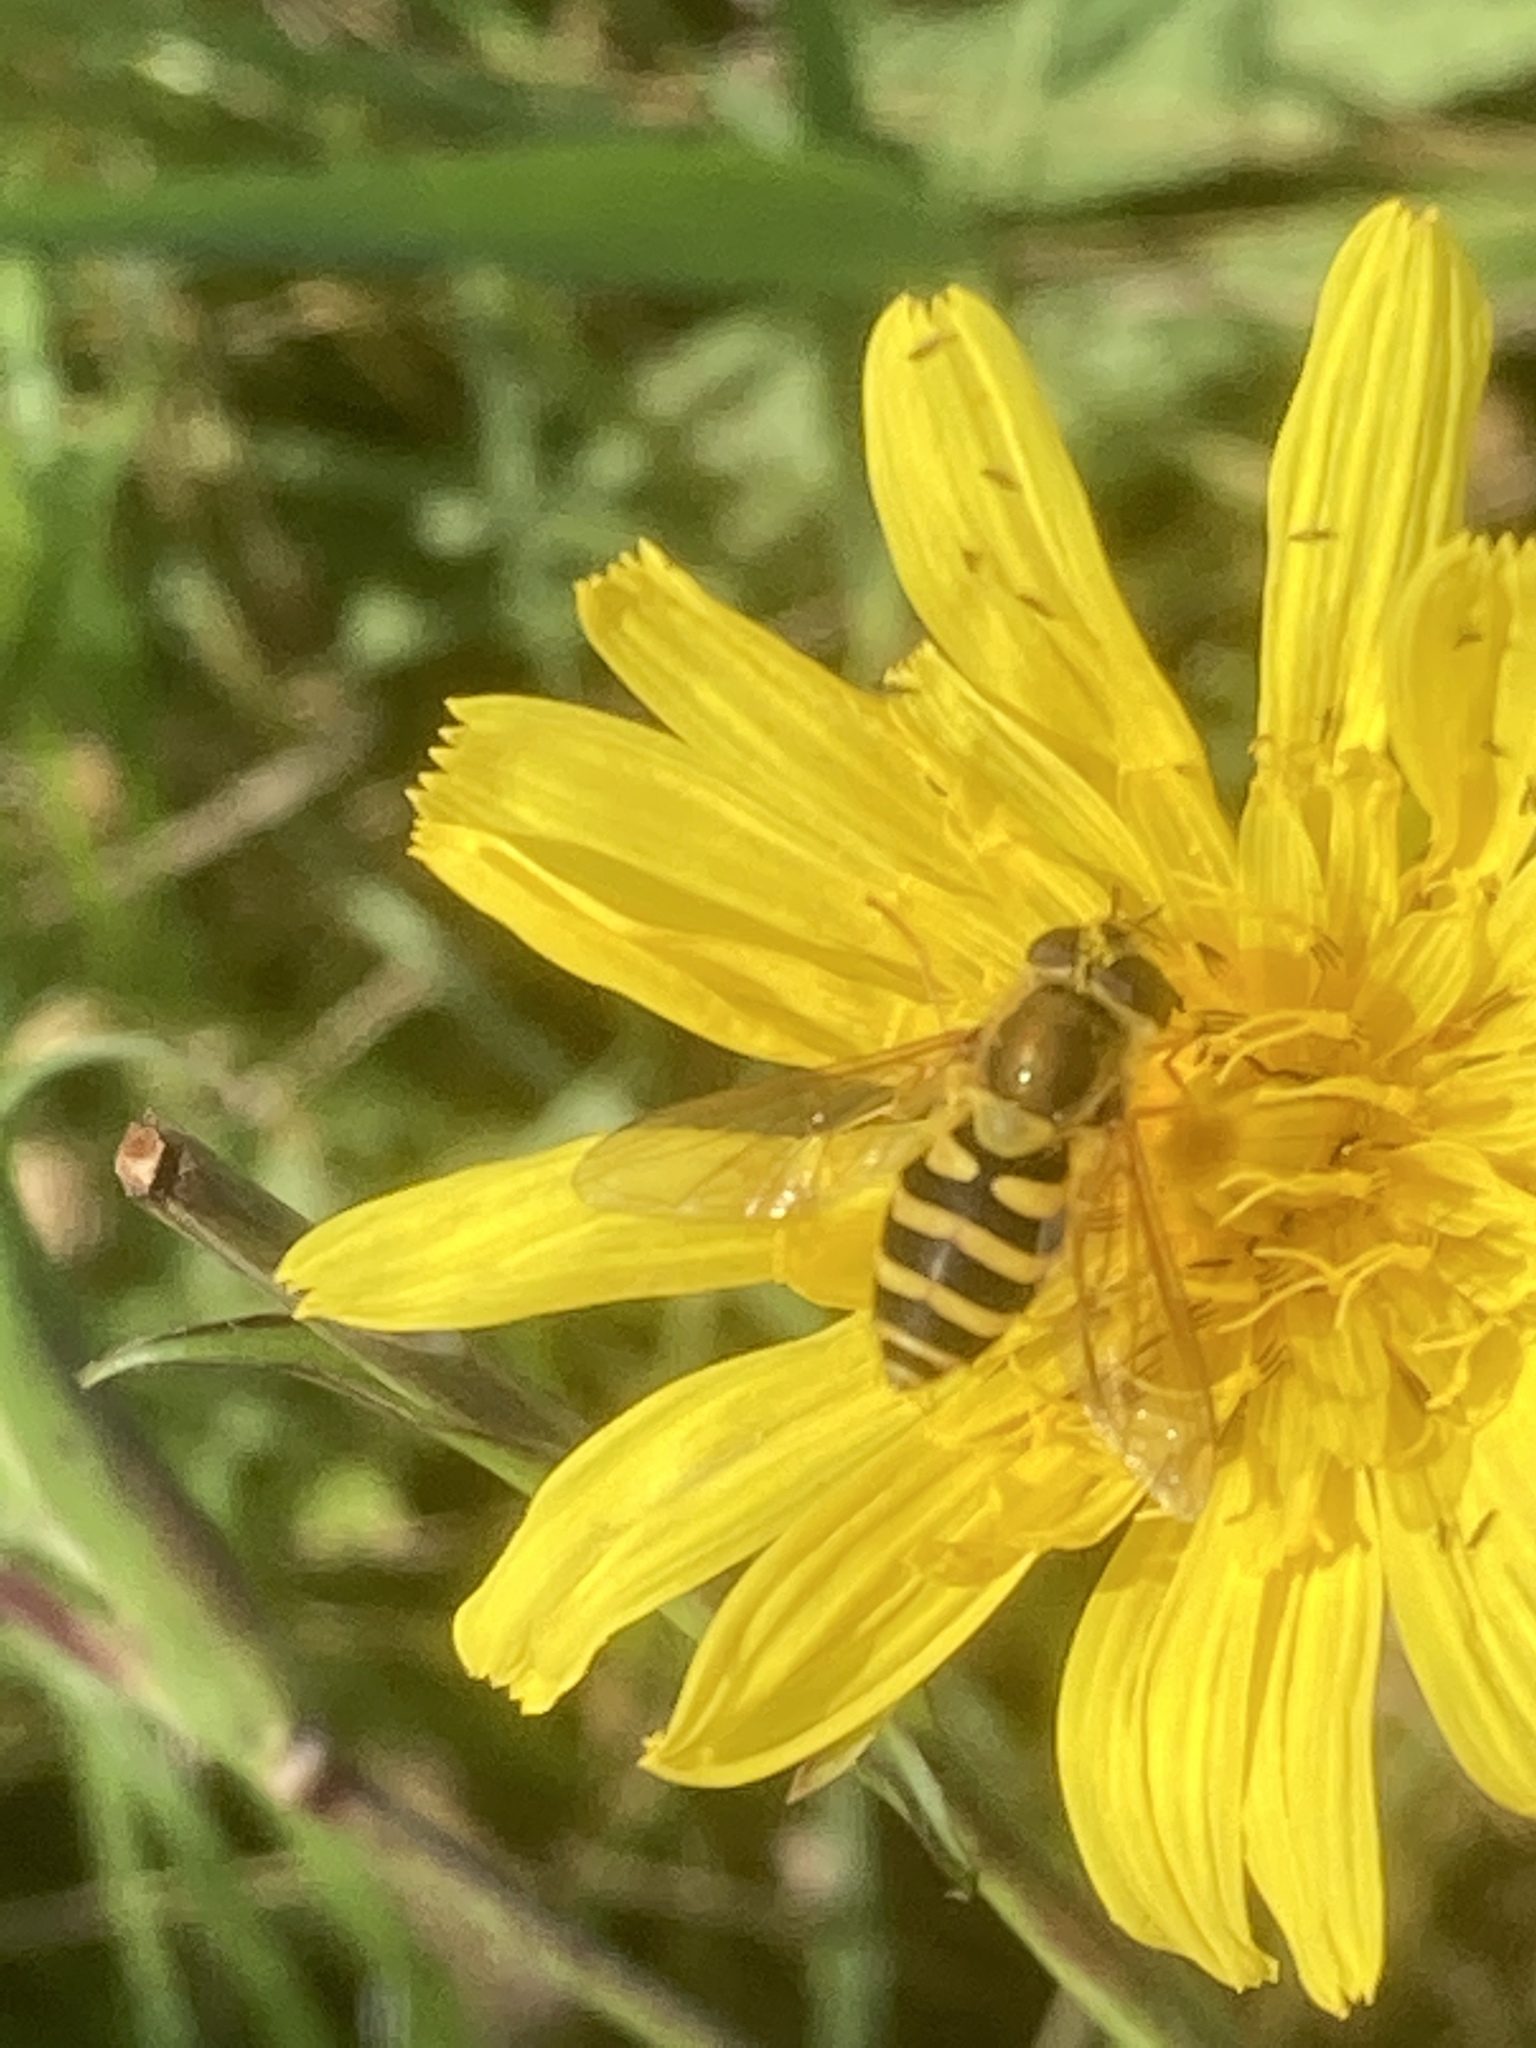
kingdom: Animalia
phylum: Arthropoda
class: Insecta
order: Diptera
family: Syrphidae
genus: Syrphus
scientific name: Syrphus
